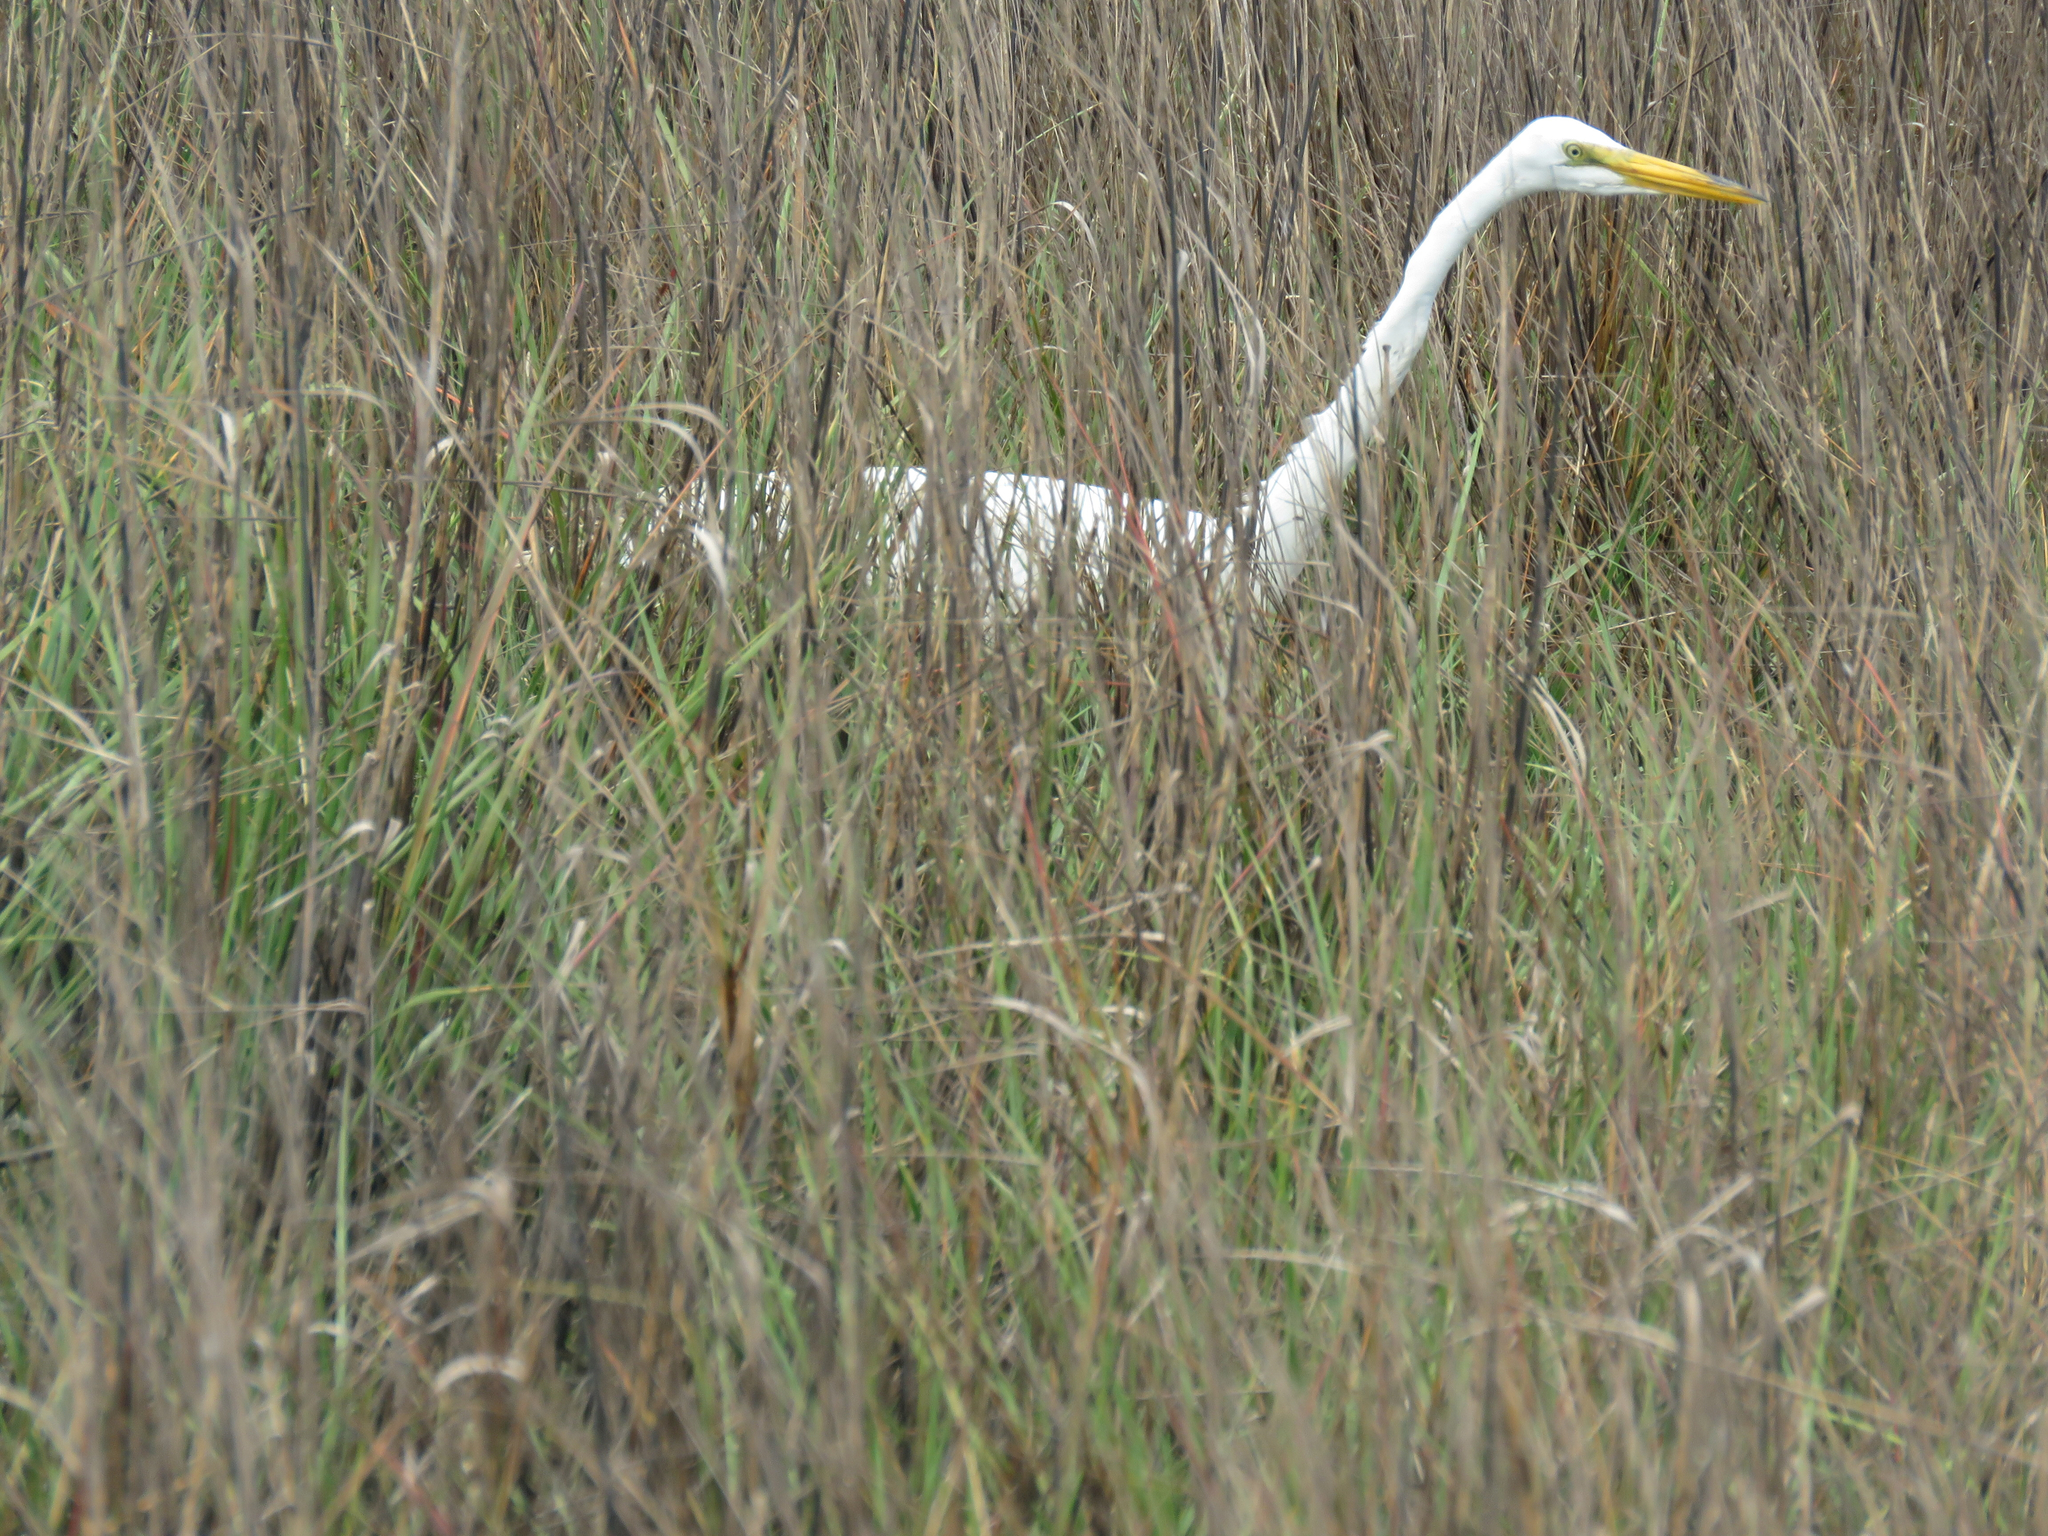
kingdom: Animalia
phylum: Chordata
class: Aves
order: Pelecaniformes
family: Ardeidae
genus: Ardea
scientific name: Ardea alba
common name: Great egret
